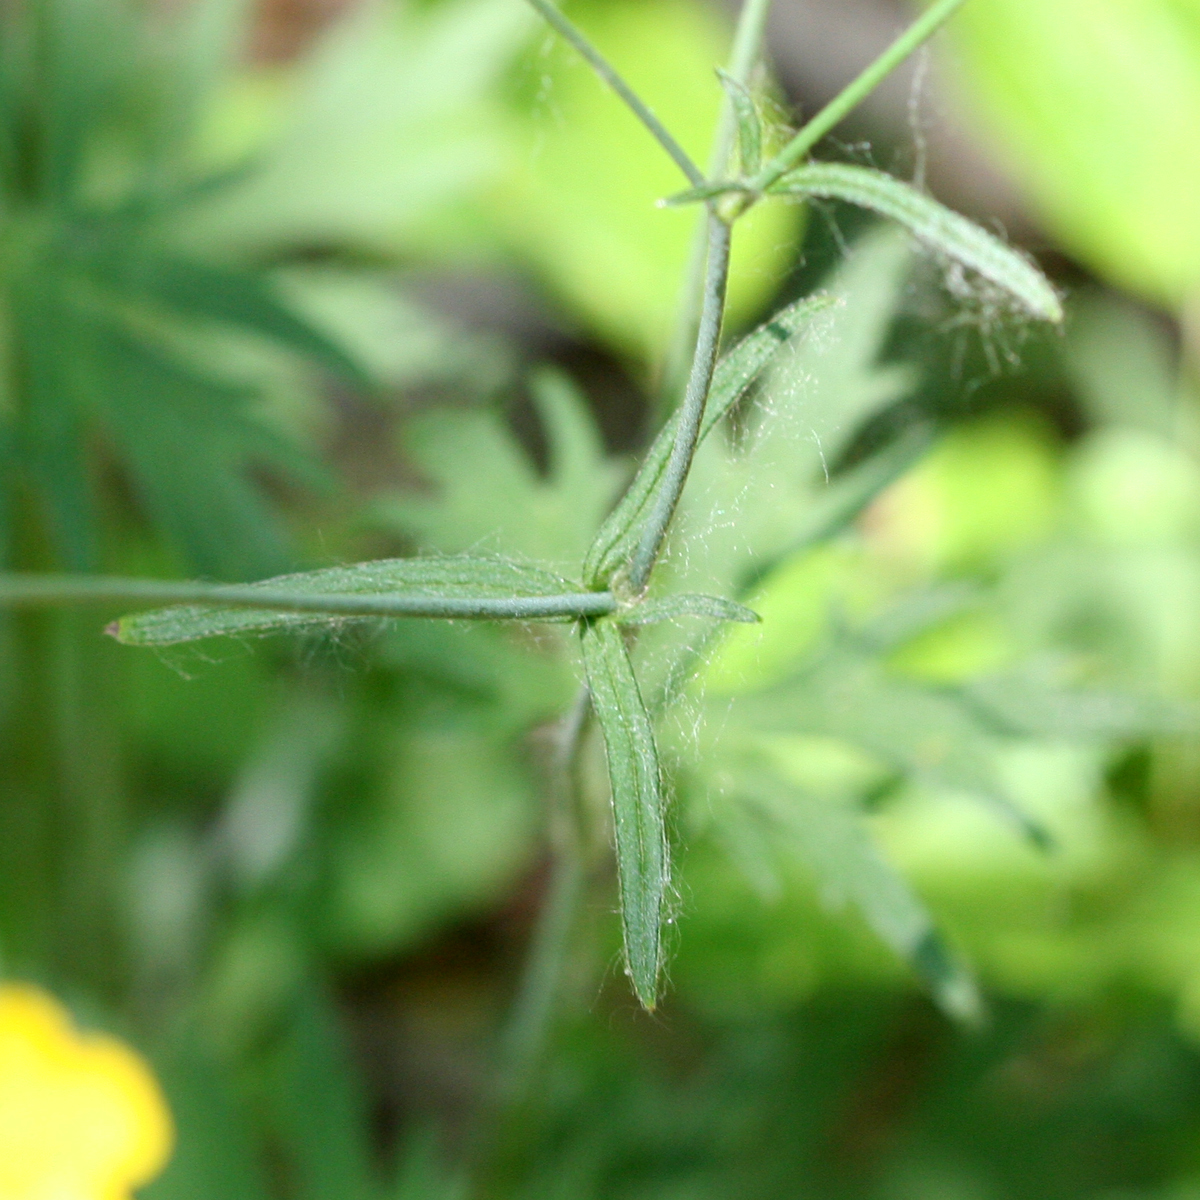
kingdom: Plantae
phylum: Tracheophyta
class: Magnoliopsida
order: Ranunculales
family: Ranunculaceae
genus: Ranunculus
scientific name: Ranunculus acris
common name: Meadow buttercup
